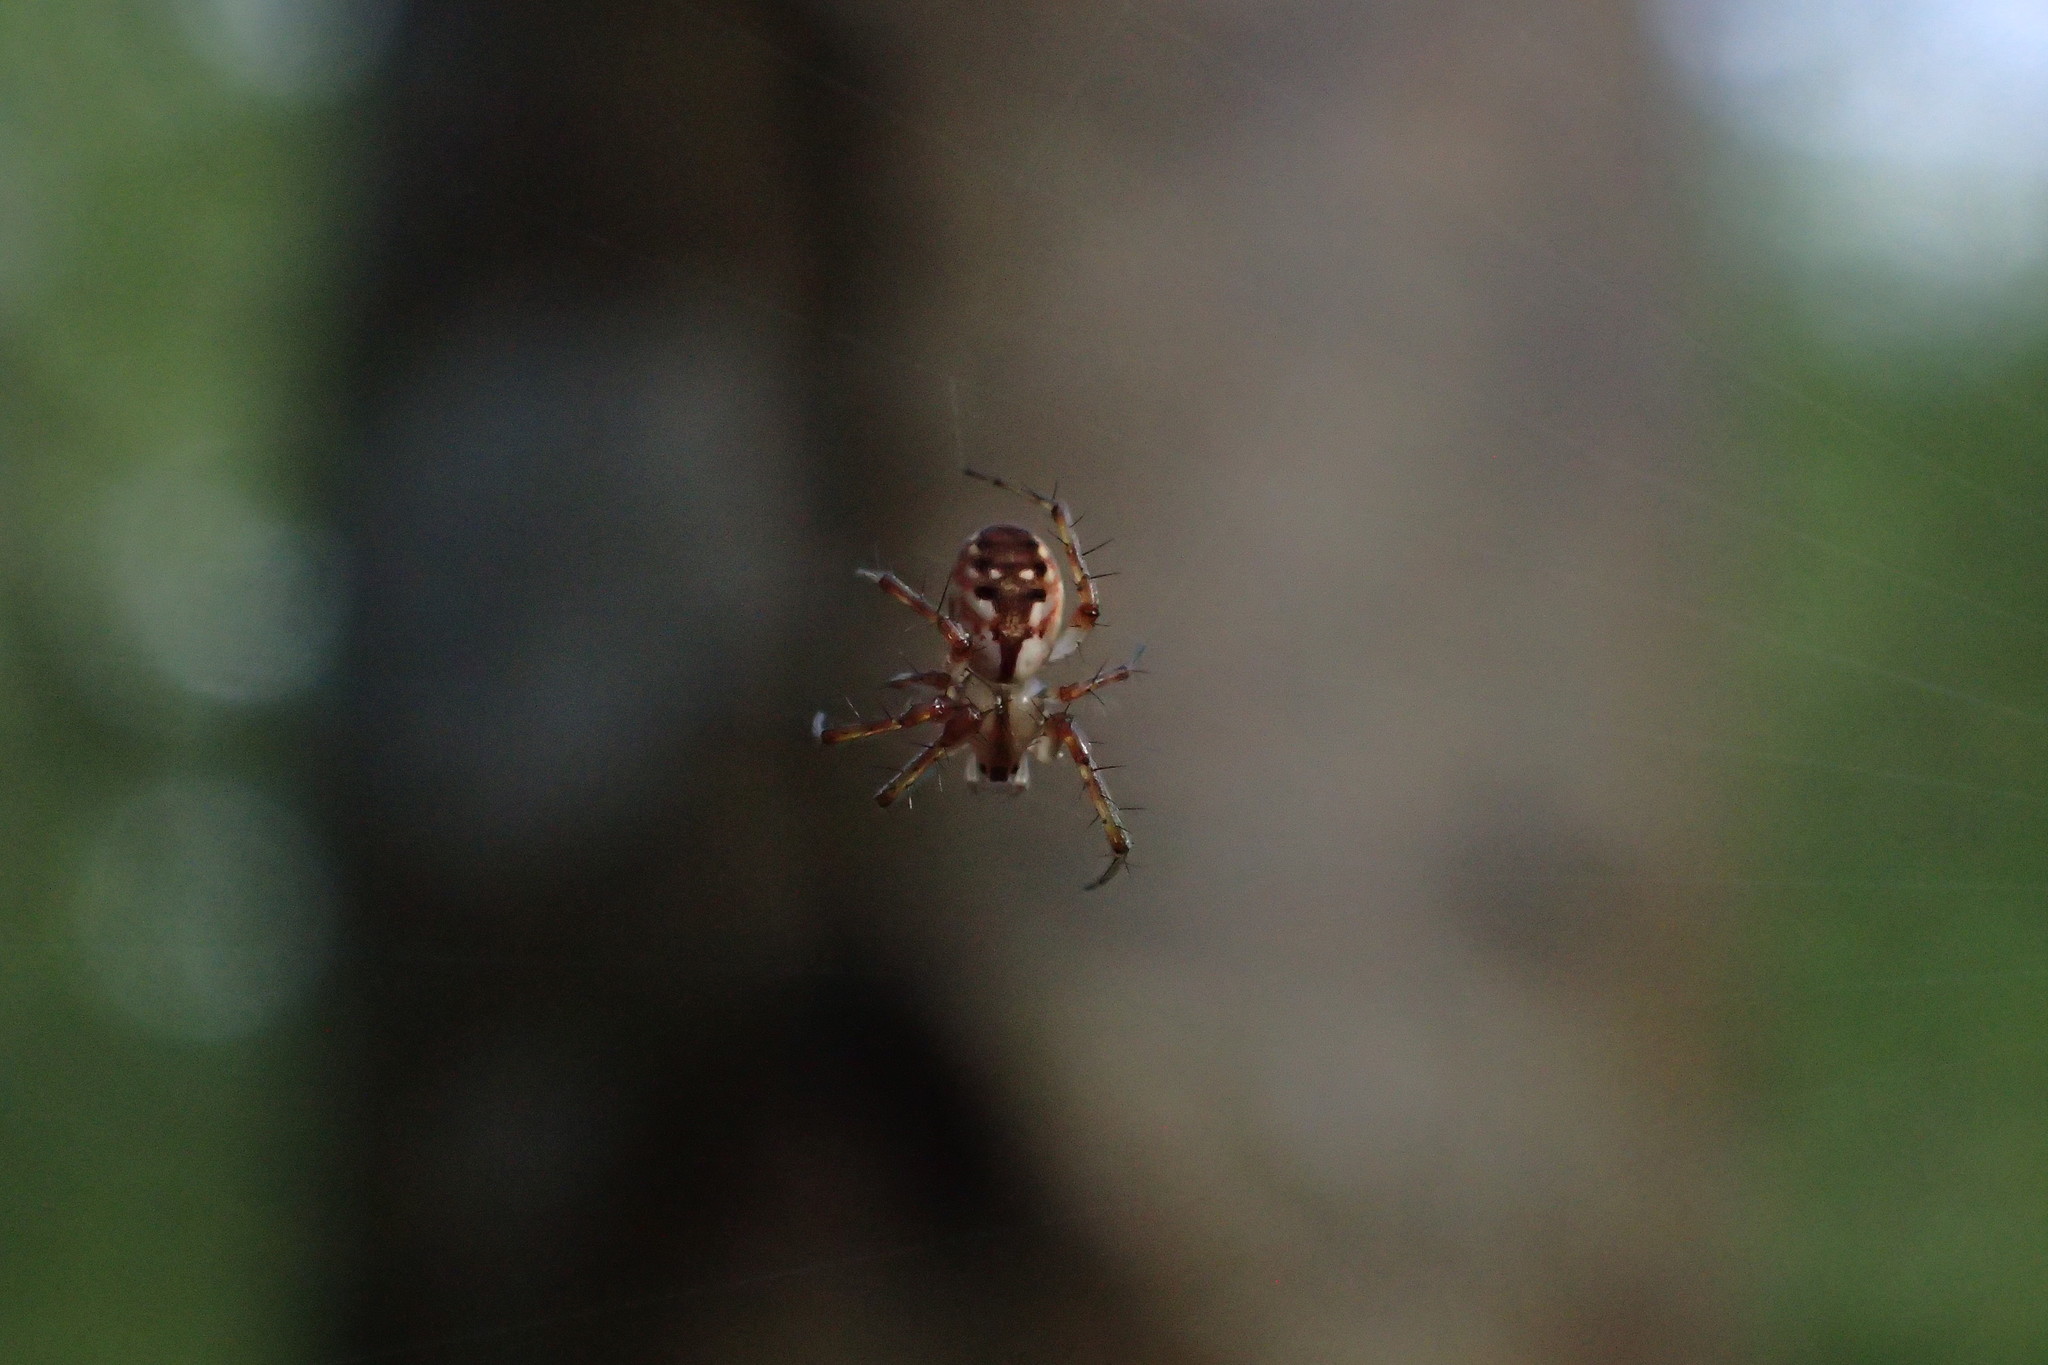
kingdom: Animalia
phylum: Arthropoda
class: Arachnida
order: Araneae
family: Araneidae
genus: Mangora
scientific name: Mangora placida
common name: Tuft-legged orbweaver
